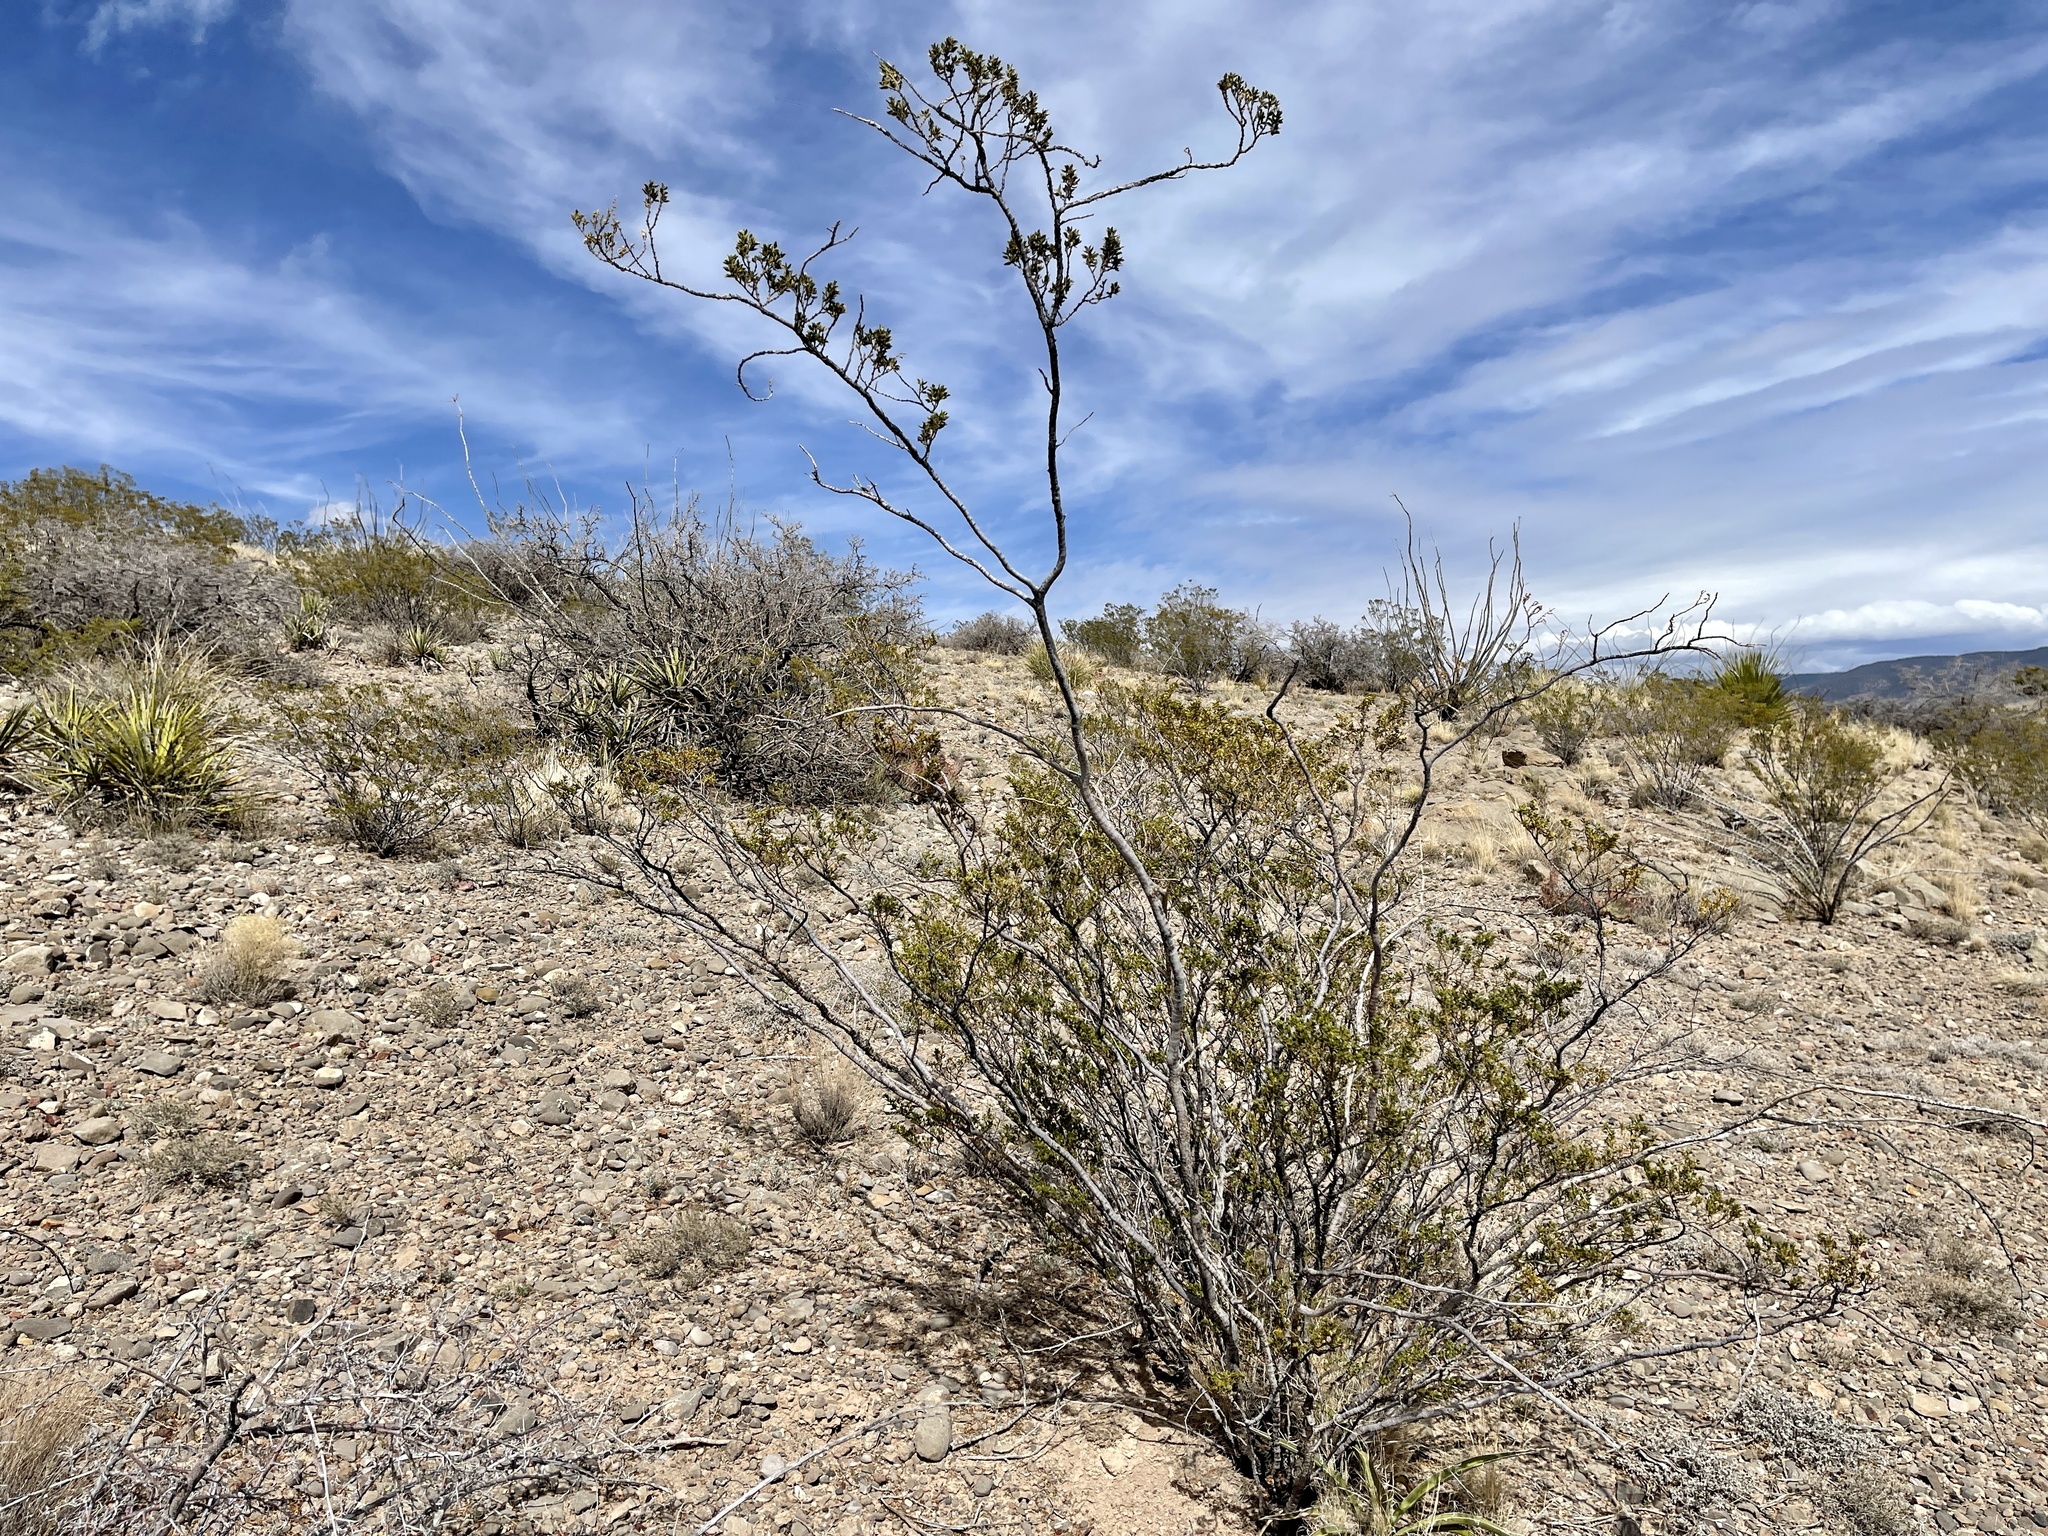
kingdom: Plantae
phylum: Tracheophyta
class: Magnoliopsida
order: Zygophyllales
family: Zygophyllaceae
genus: Larrea
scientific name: Larrea tridentata
